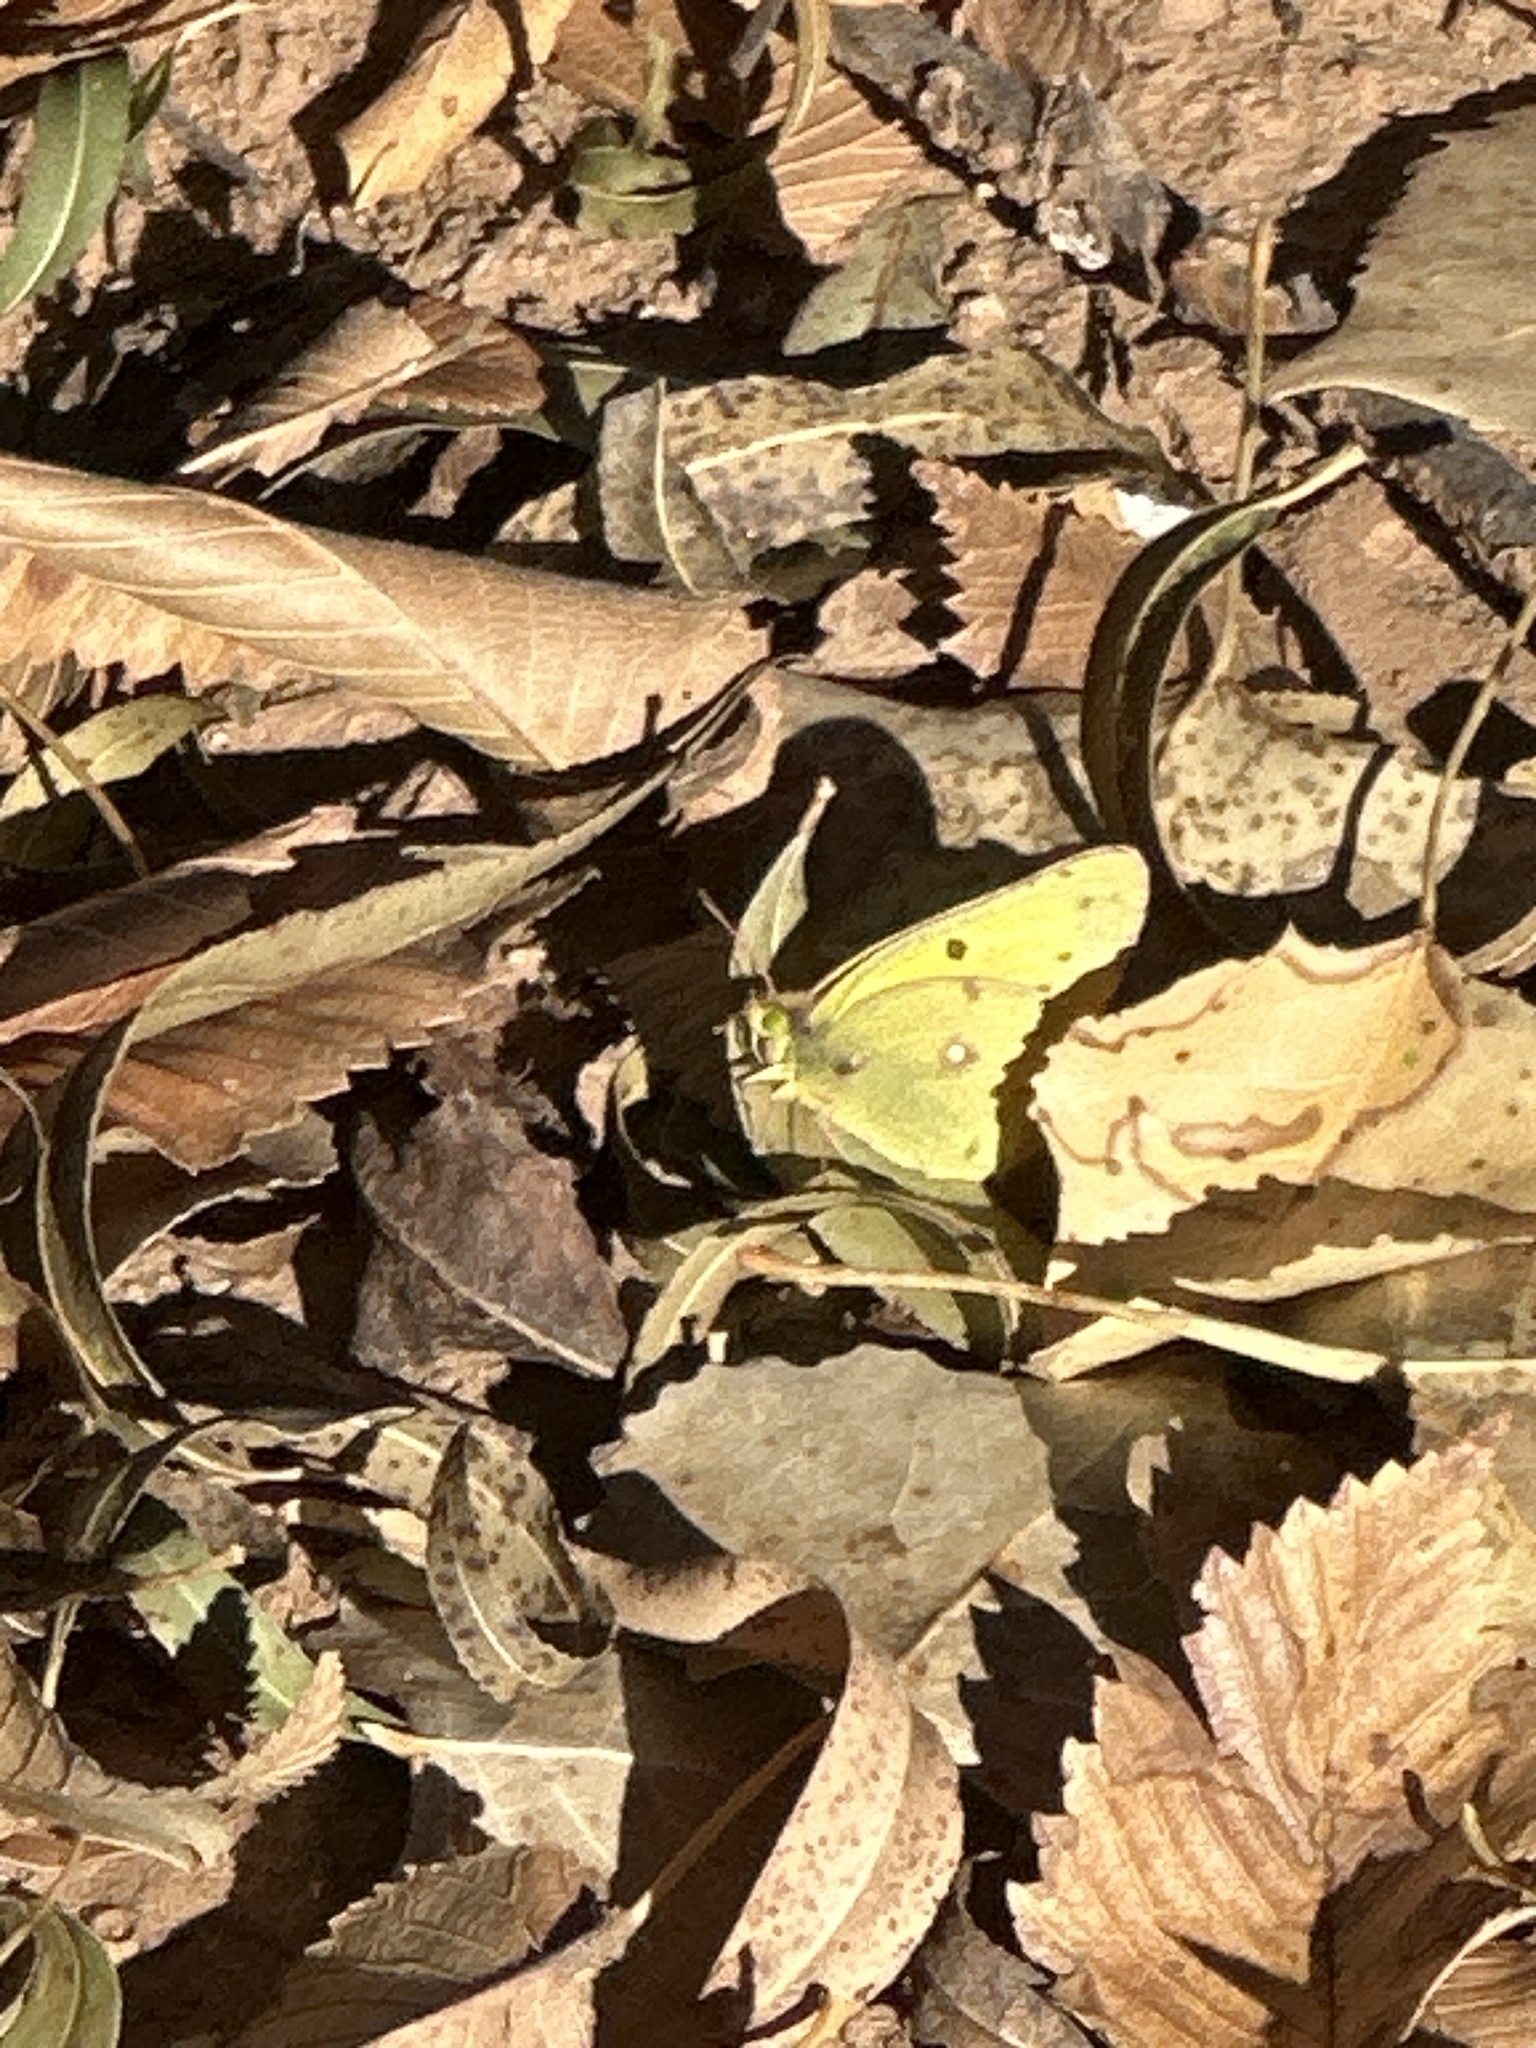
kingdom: Animalia
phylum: Arthropoda
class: Insecta
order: Lepidoptera
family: Pieridae
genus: Colias
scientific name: Colias eurytheme
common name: Alfalfa butterfly
